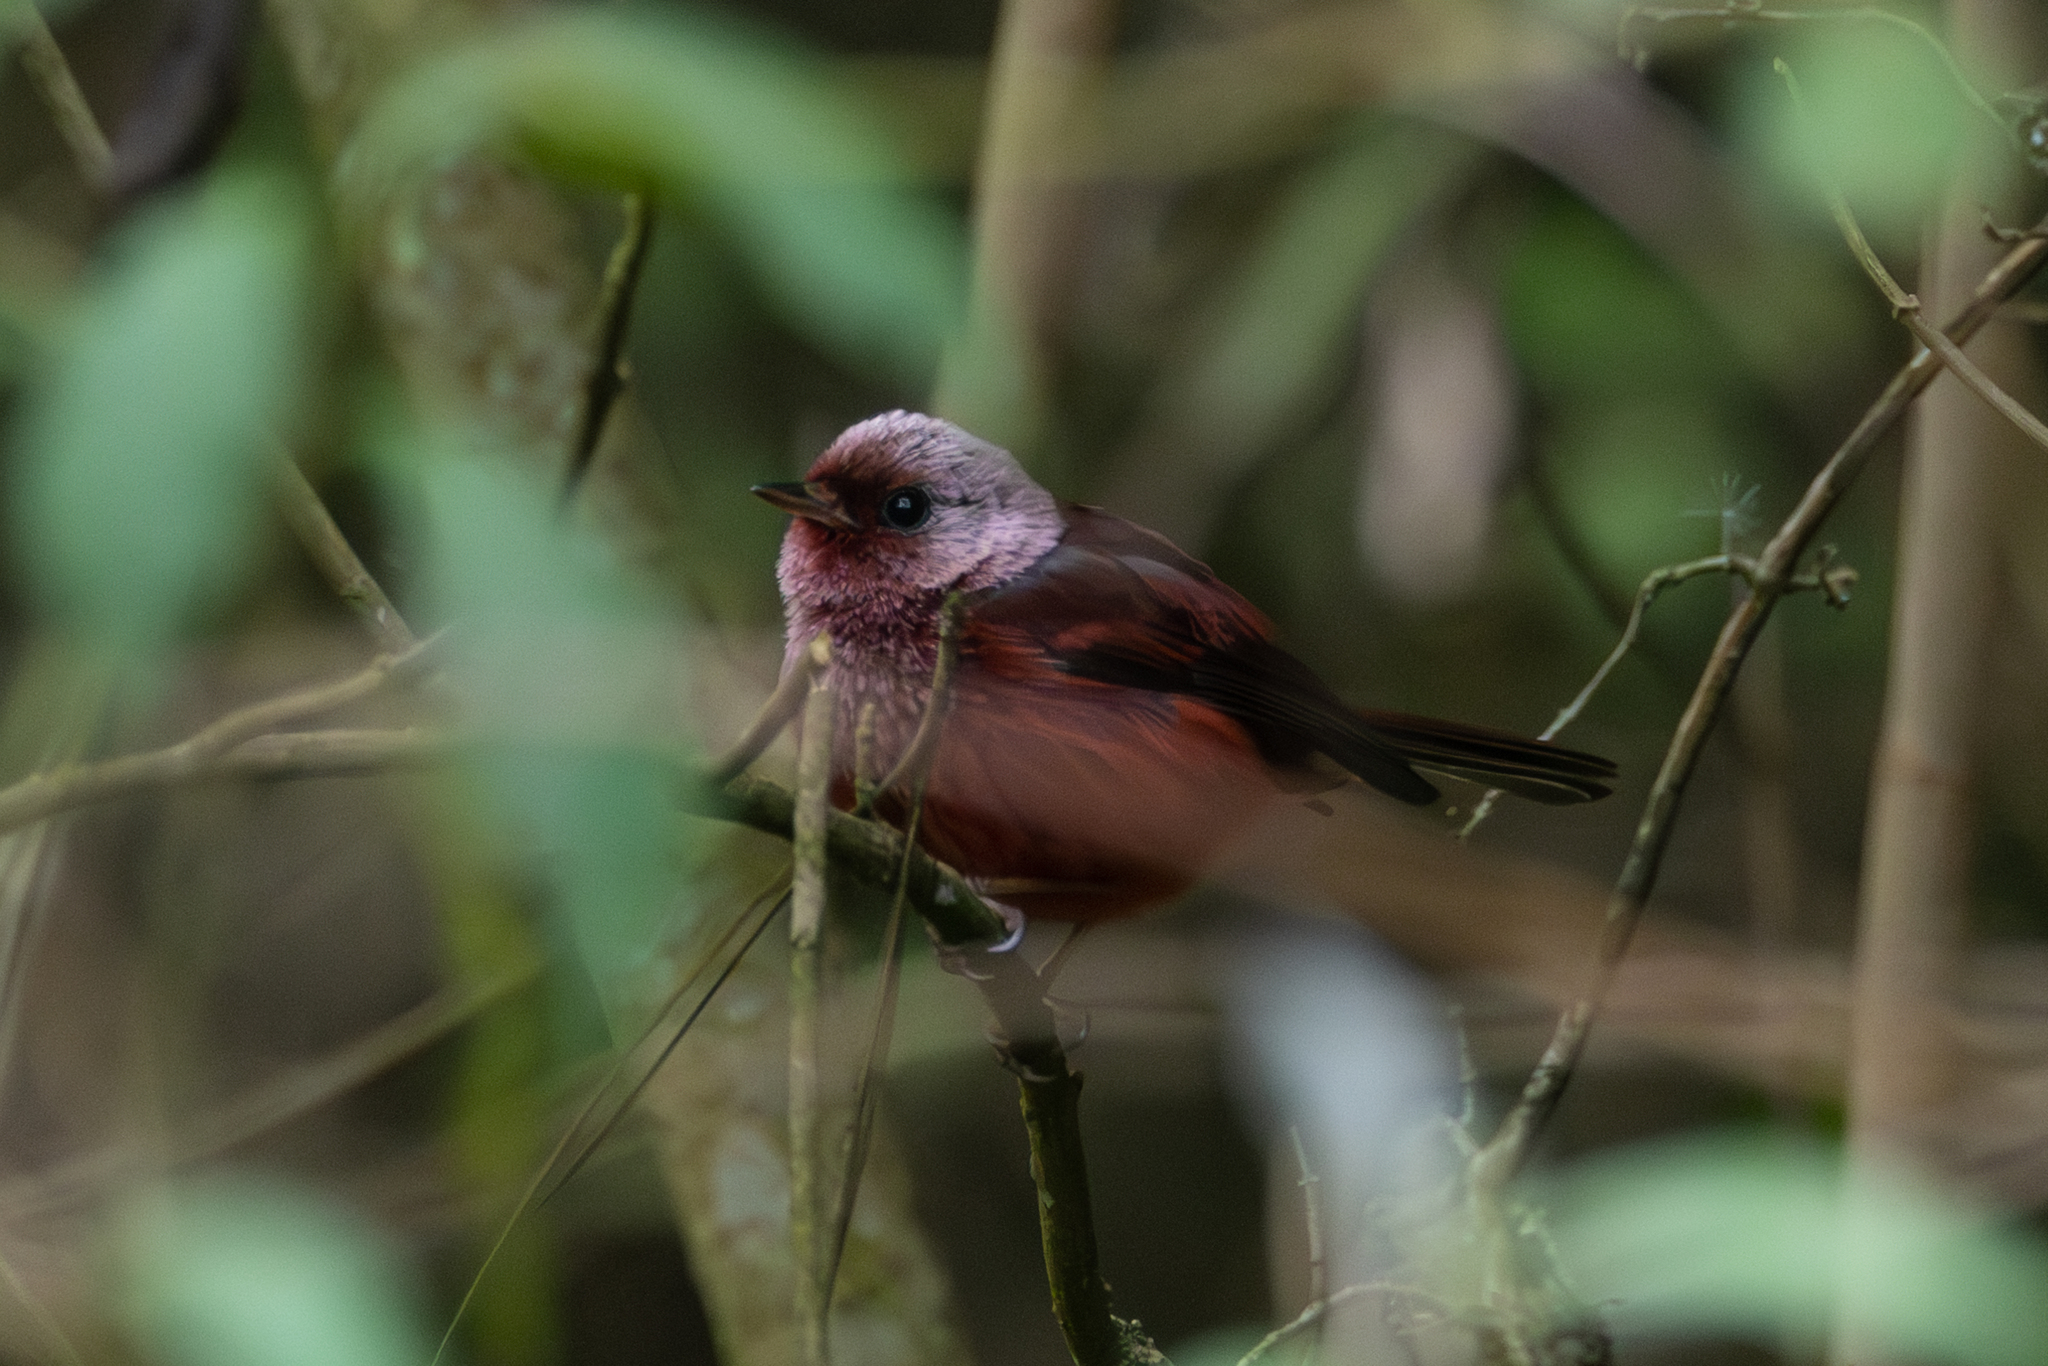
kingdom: Animalia
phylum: Chordata
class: Aves
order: Passeriformes
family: Parulidae
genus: Cardellina
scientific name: Cardellina versicolor
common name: Pink-headed warbler
